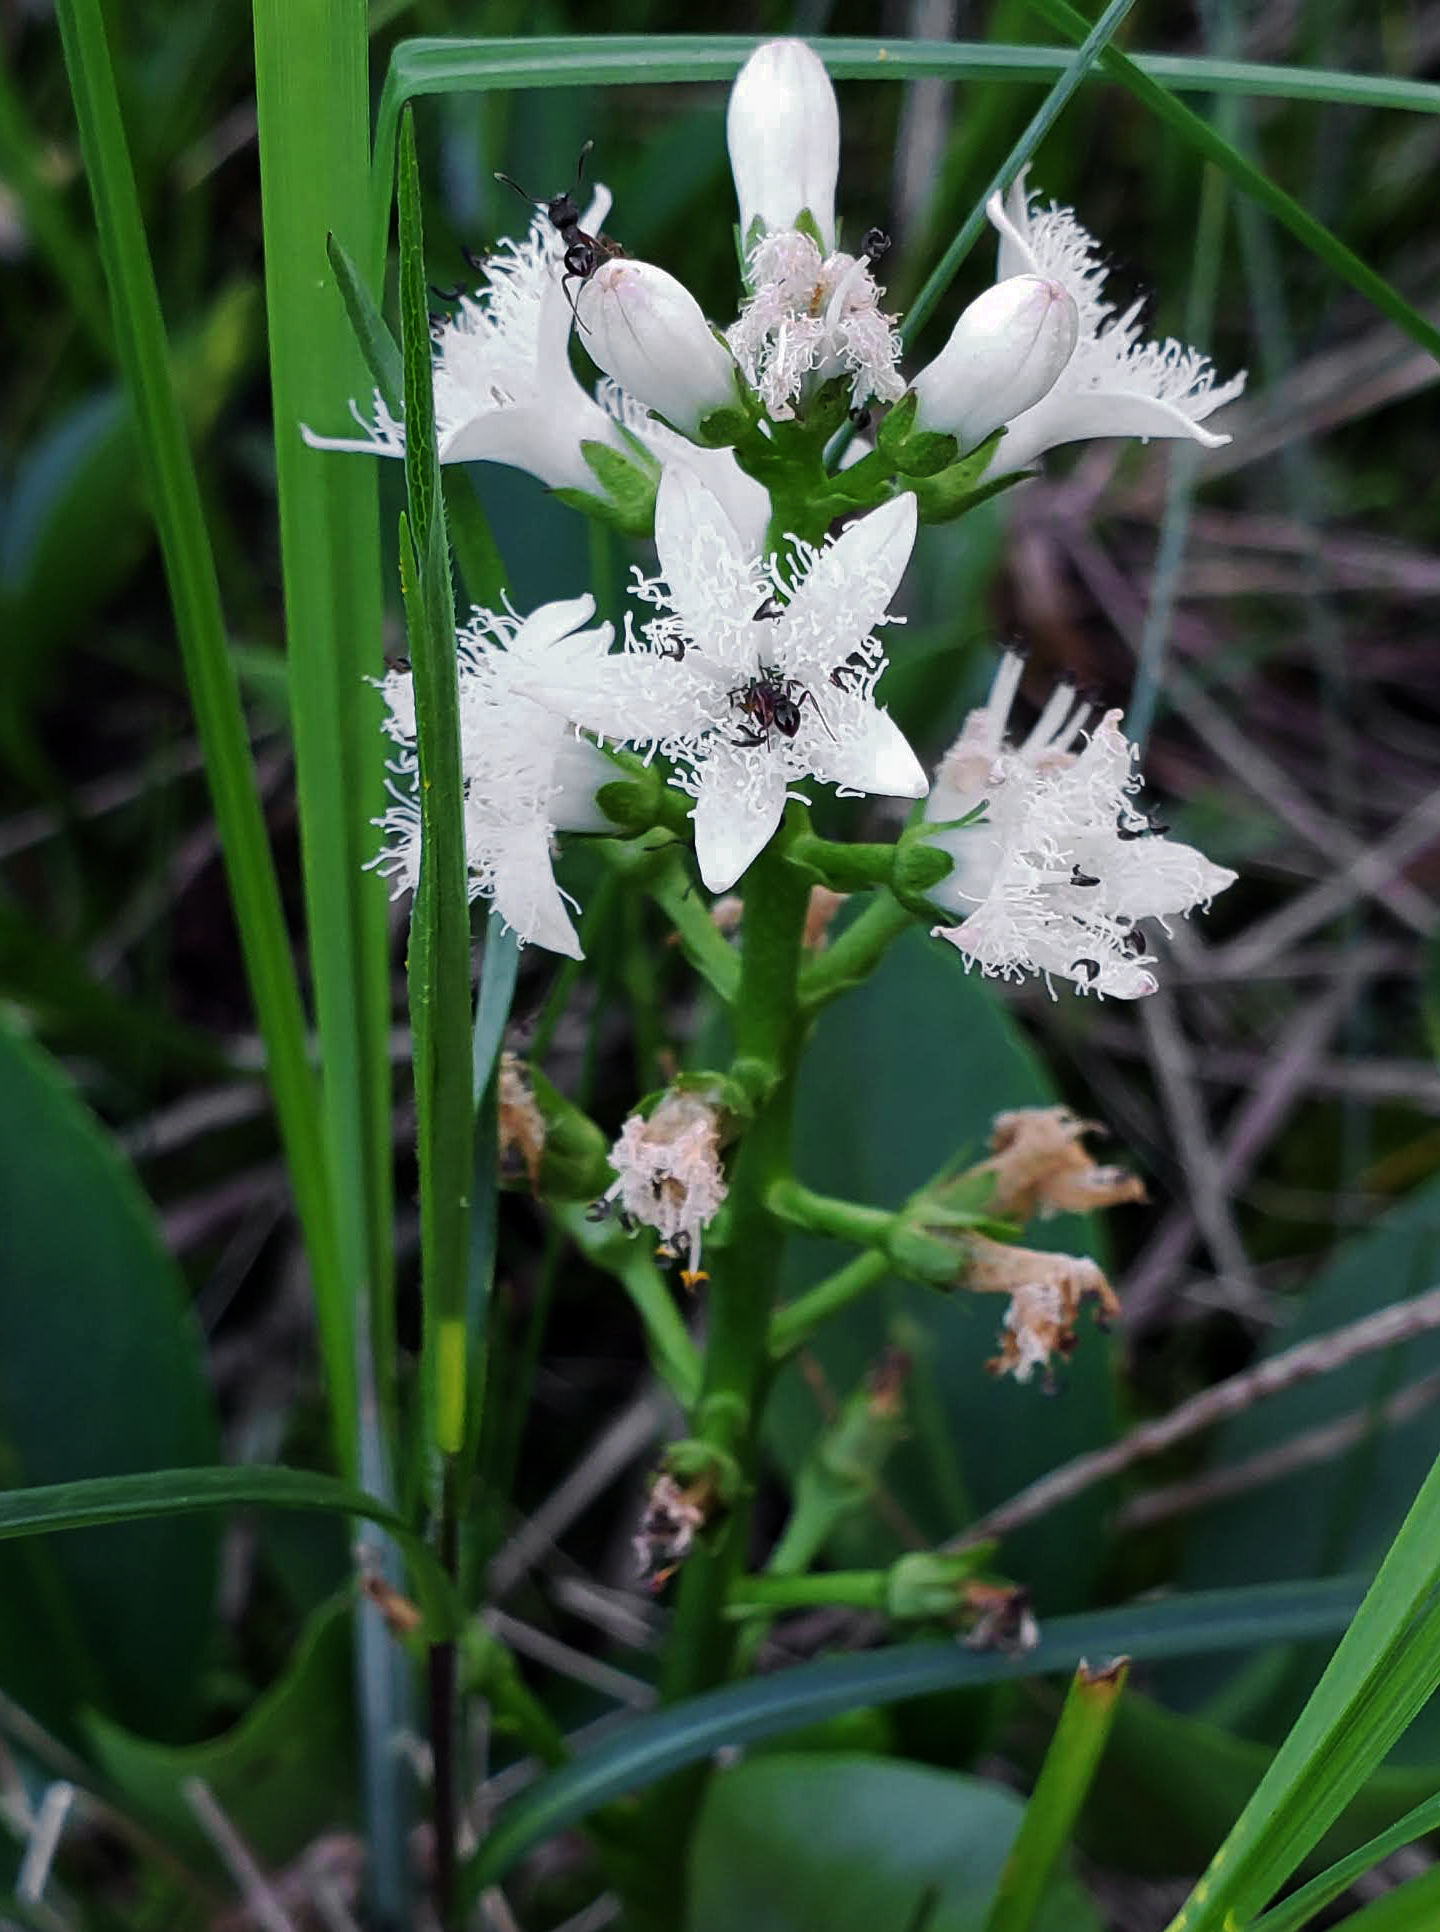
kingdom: Plantae
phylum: Tracheophyta
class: Magnoliopsida
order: Asterales
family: Menyanthaceae
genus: Menyanthes
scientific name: Menyanthes trifoliata
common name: Bogbean
